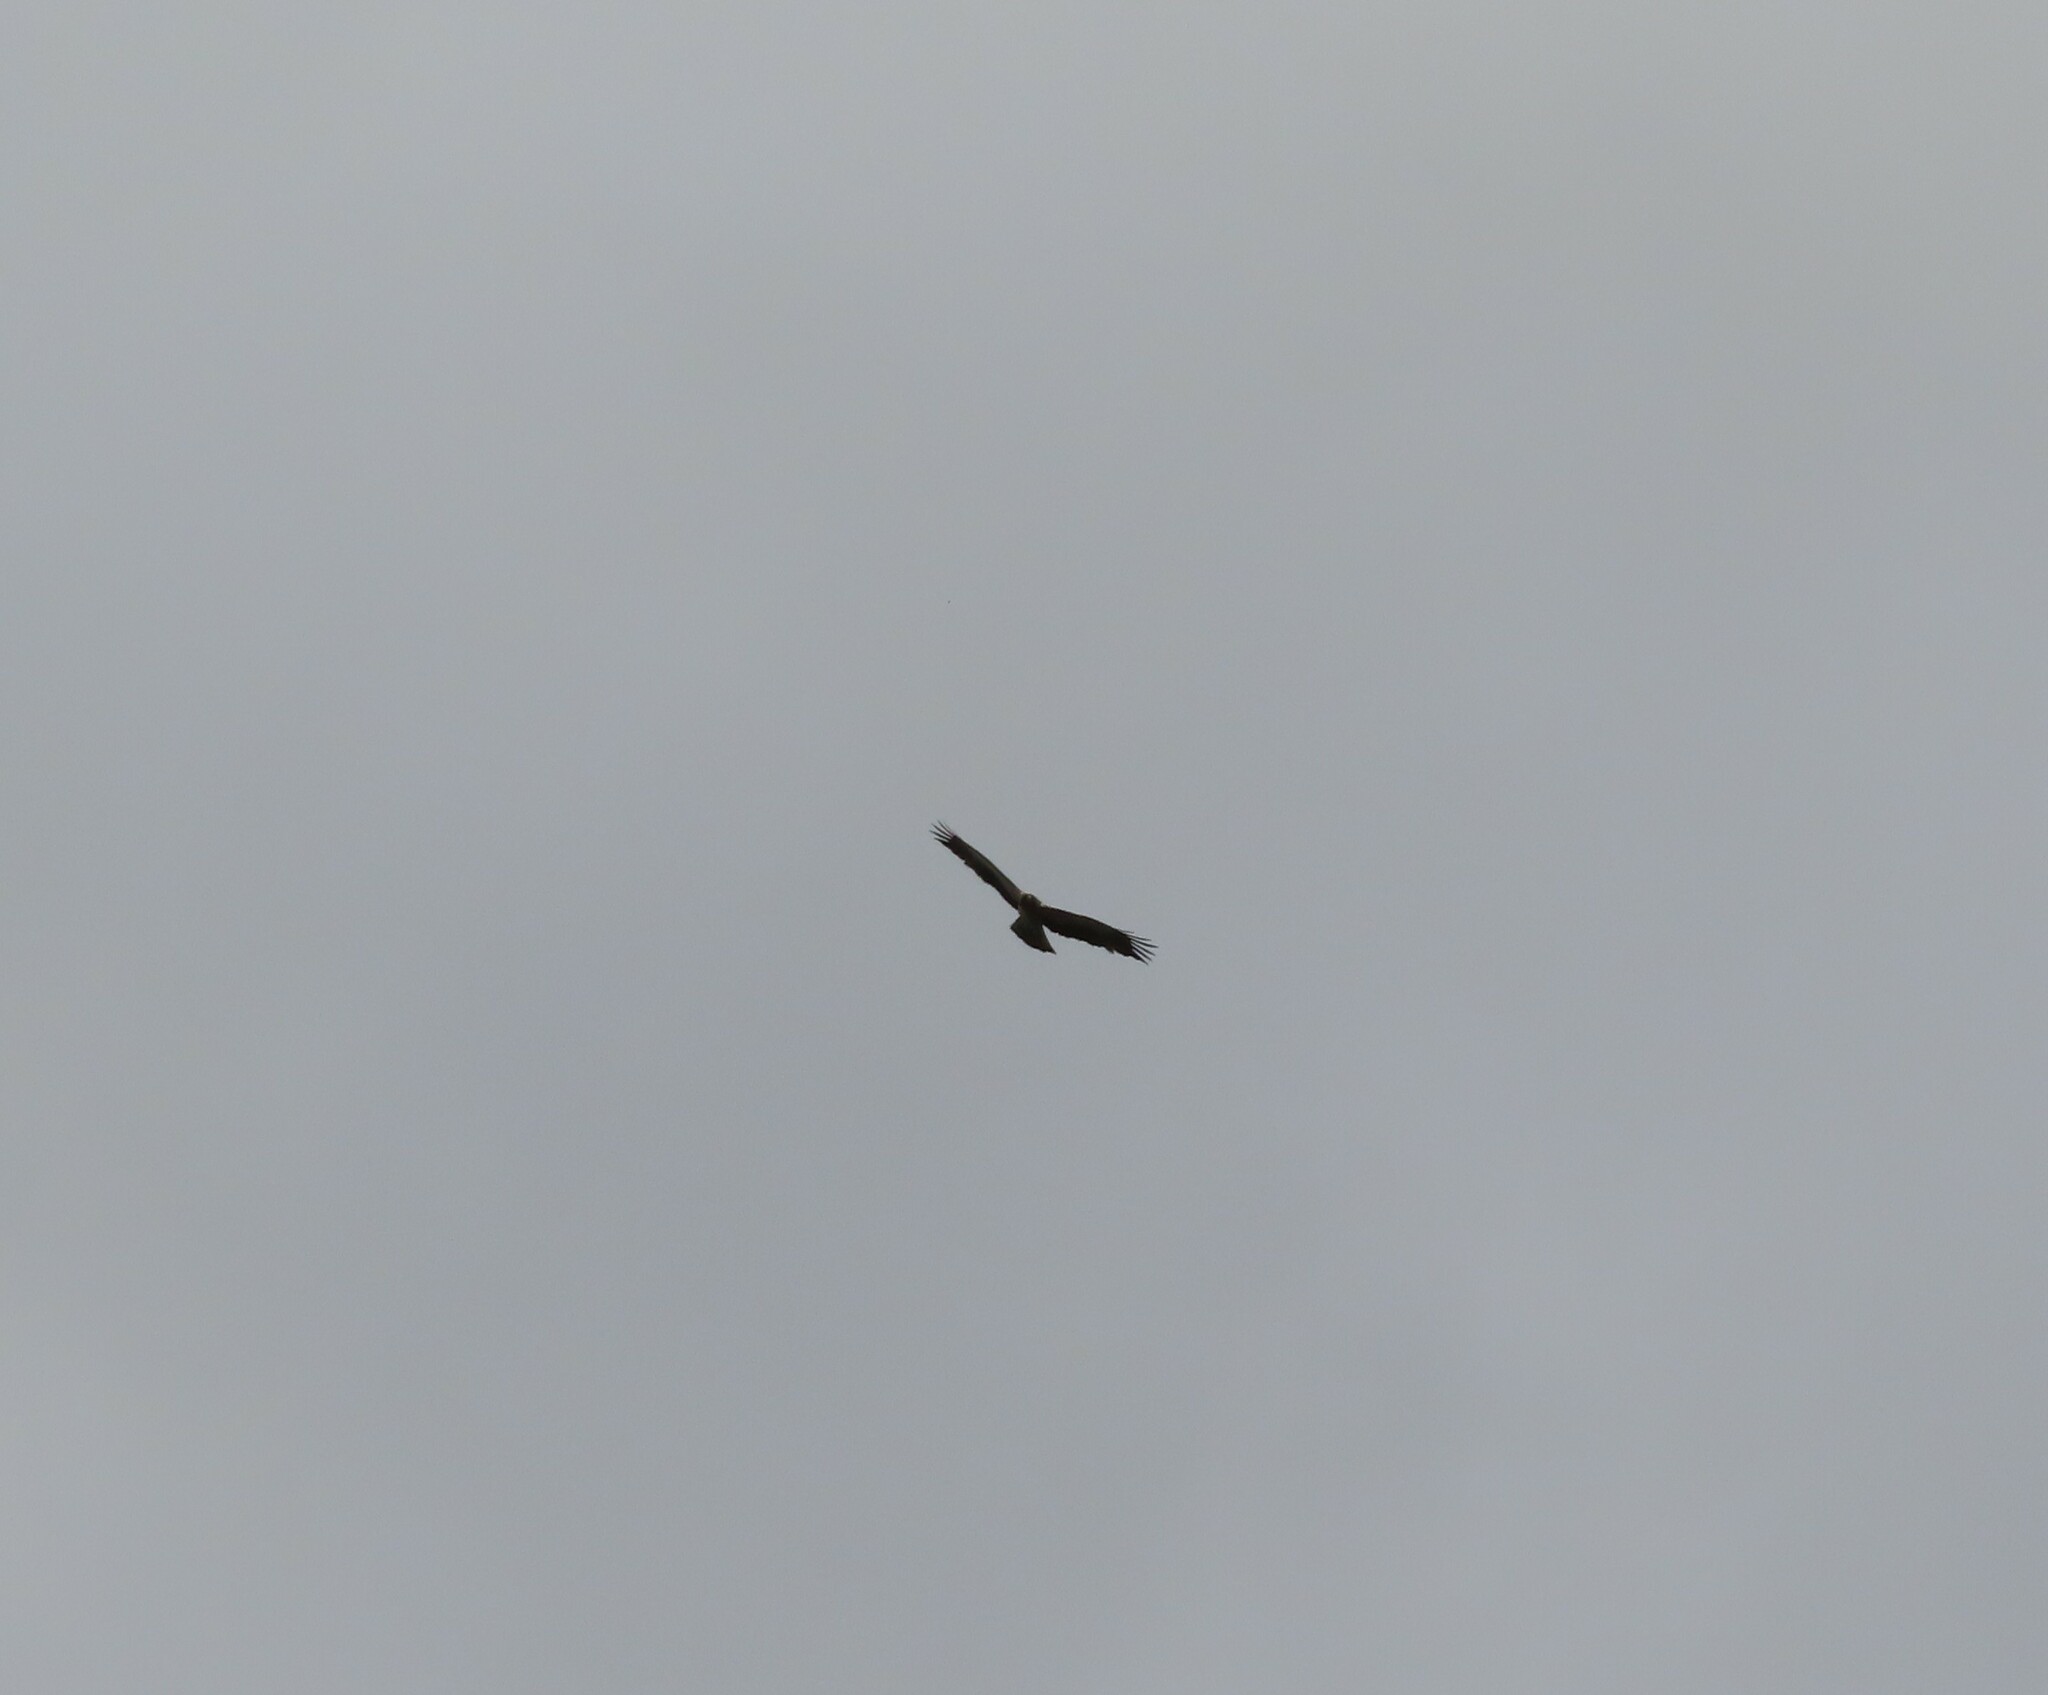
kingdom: Animalia
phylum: Chordata
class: Aves
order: Accipitriformes
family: Accipitridae
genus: Hieraaetus
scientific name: Hieraaetus pennatus
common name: Booted eagle
